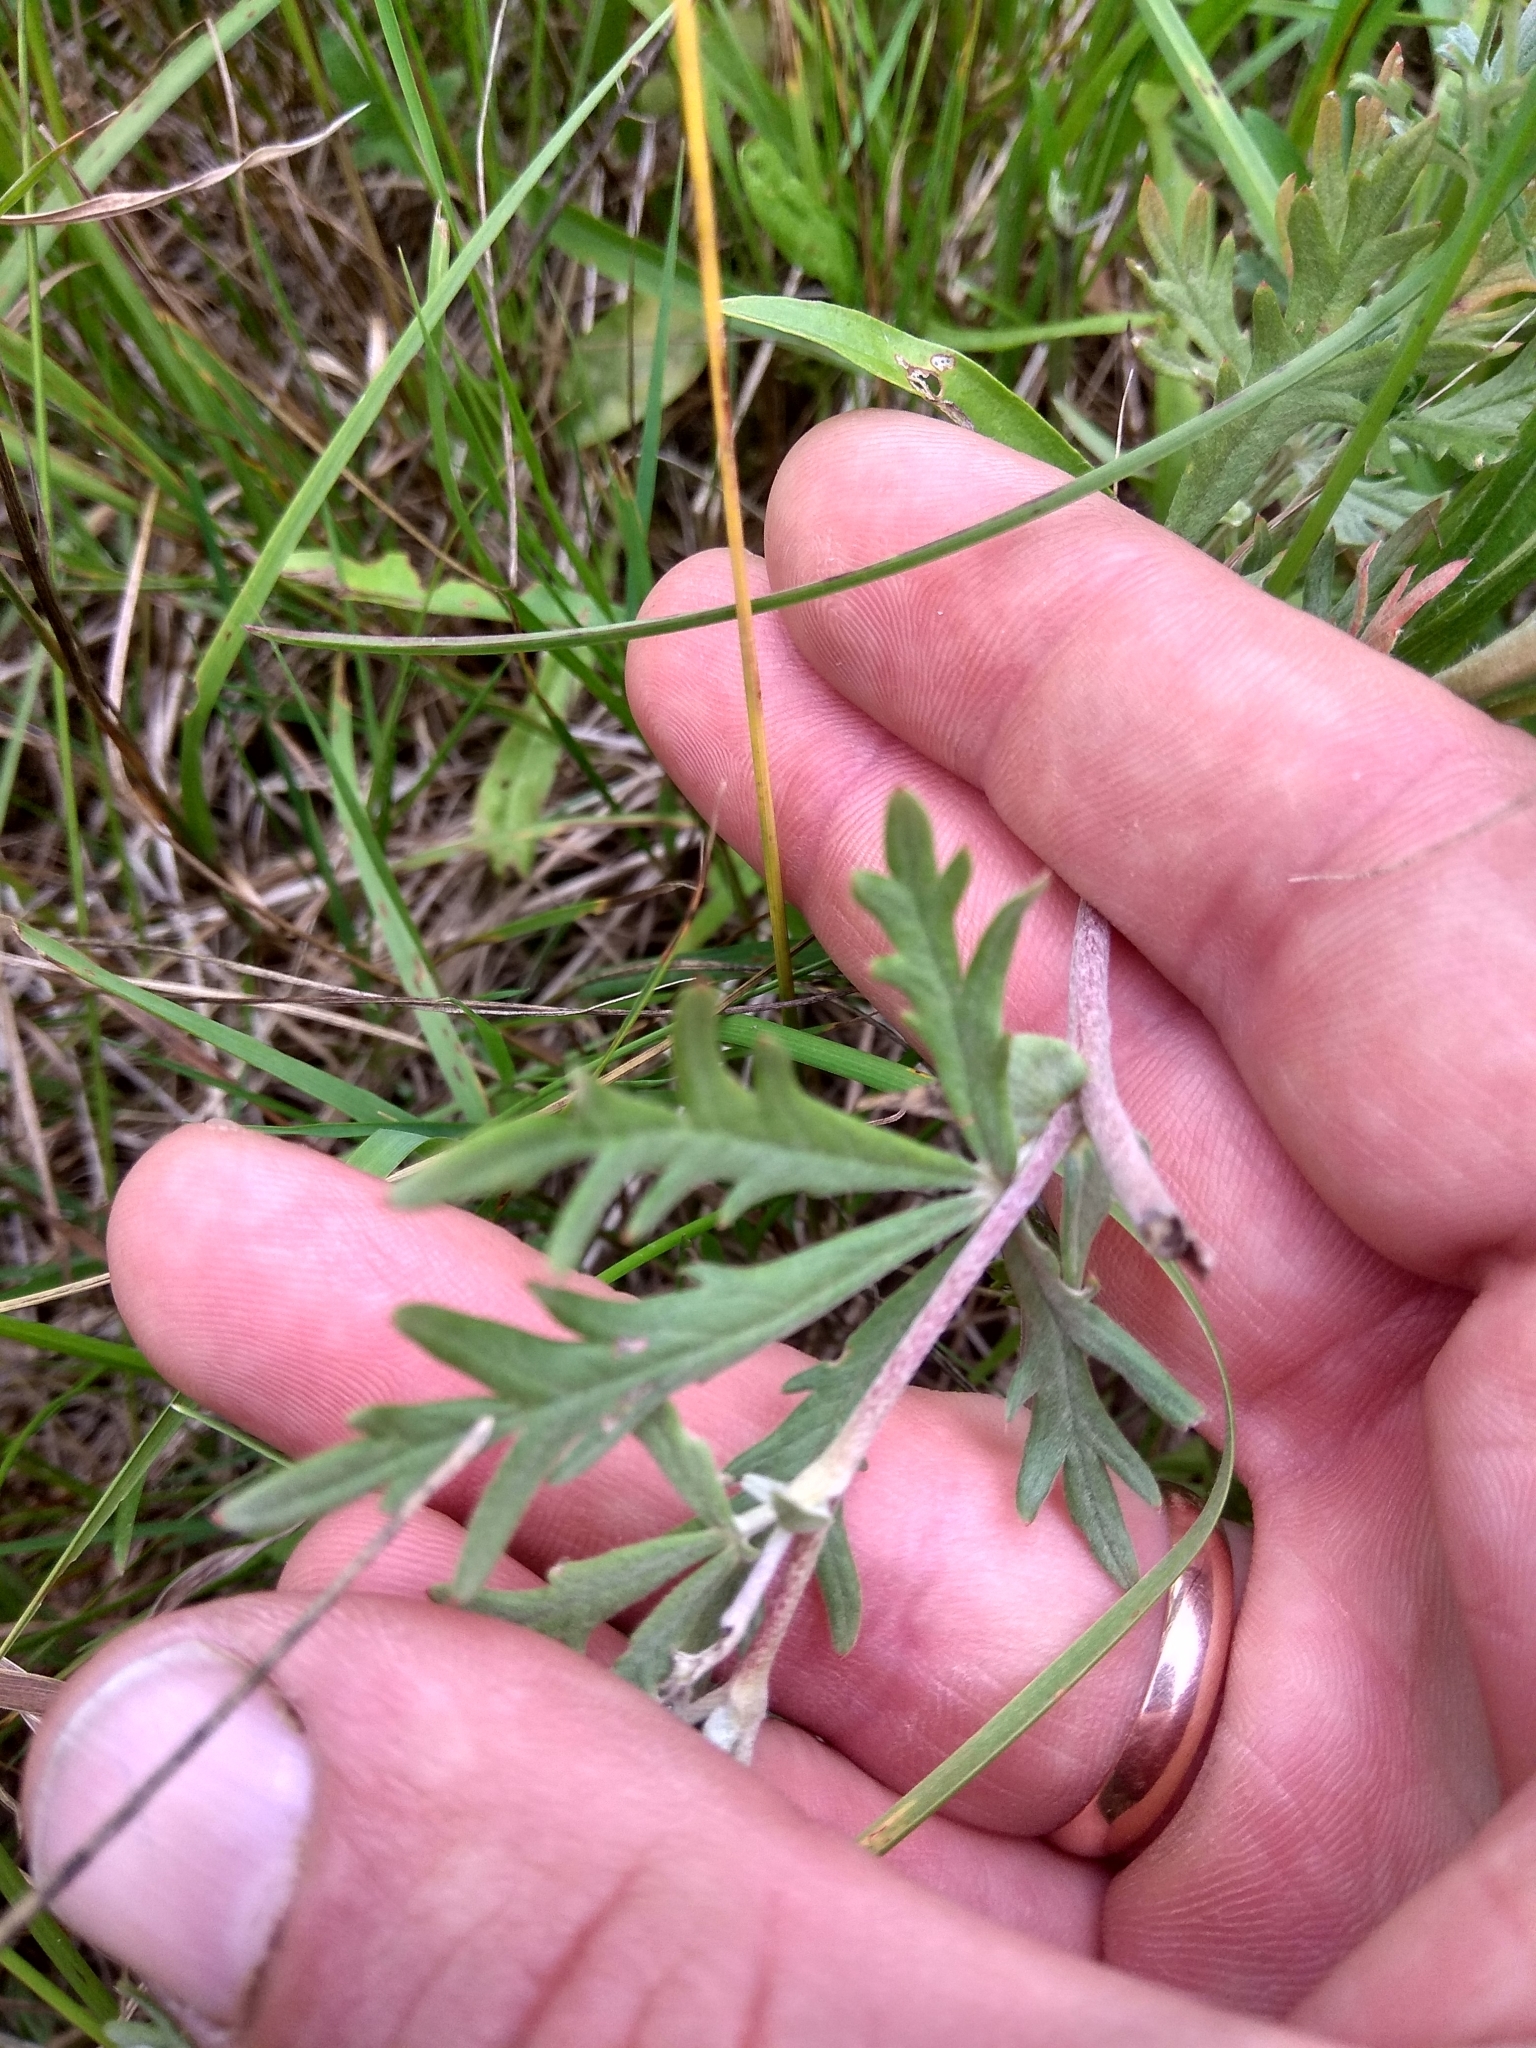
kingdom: Plantae
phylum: Tracheophyta
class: Magnoliopsida
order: Rosales
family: Rosaceae
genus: Potentilla
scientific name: Potentilla argentea
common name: Hoary cinquefoil
